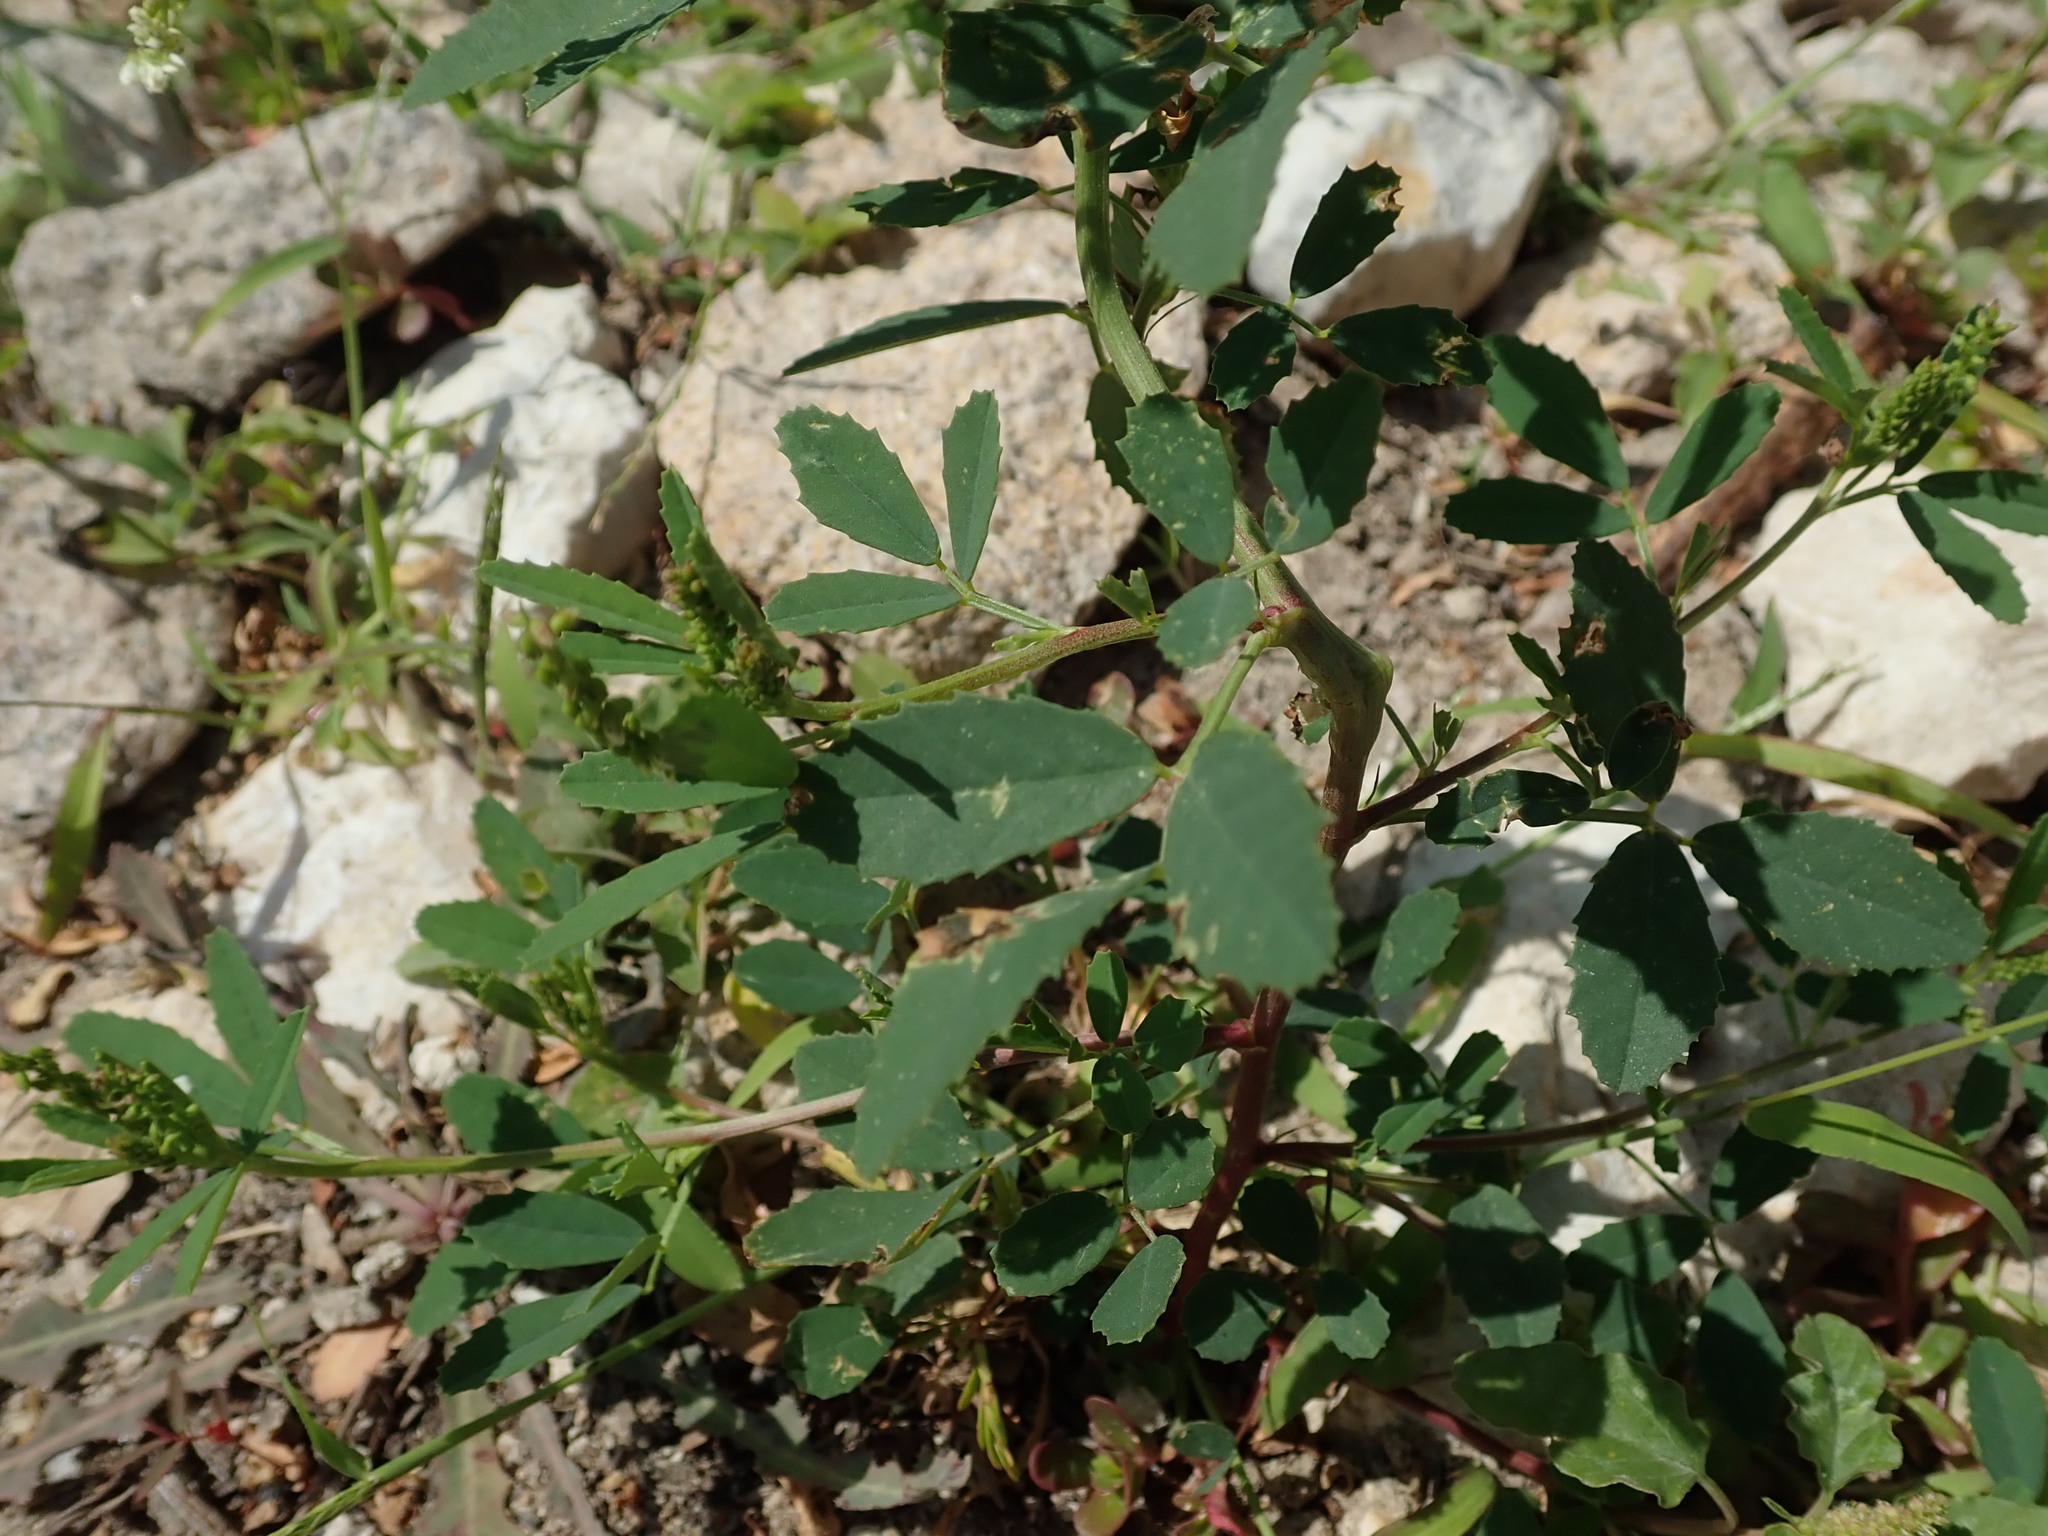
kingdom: Plantae
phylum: Tracheophyta
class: Magnoliopsida
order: Fabales
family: Fabaceae
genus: Melilotus
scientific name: Melilotus albus
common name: White melilot
